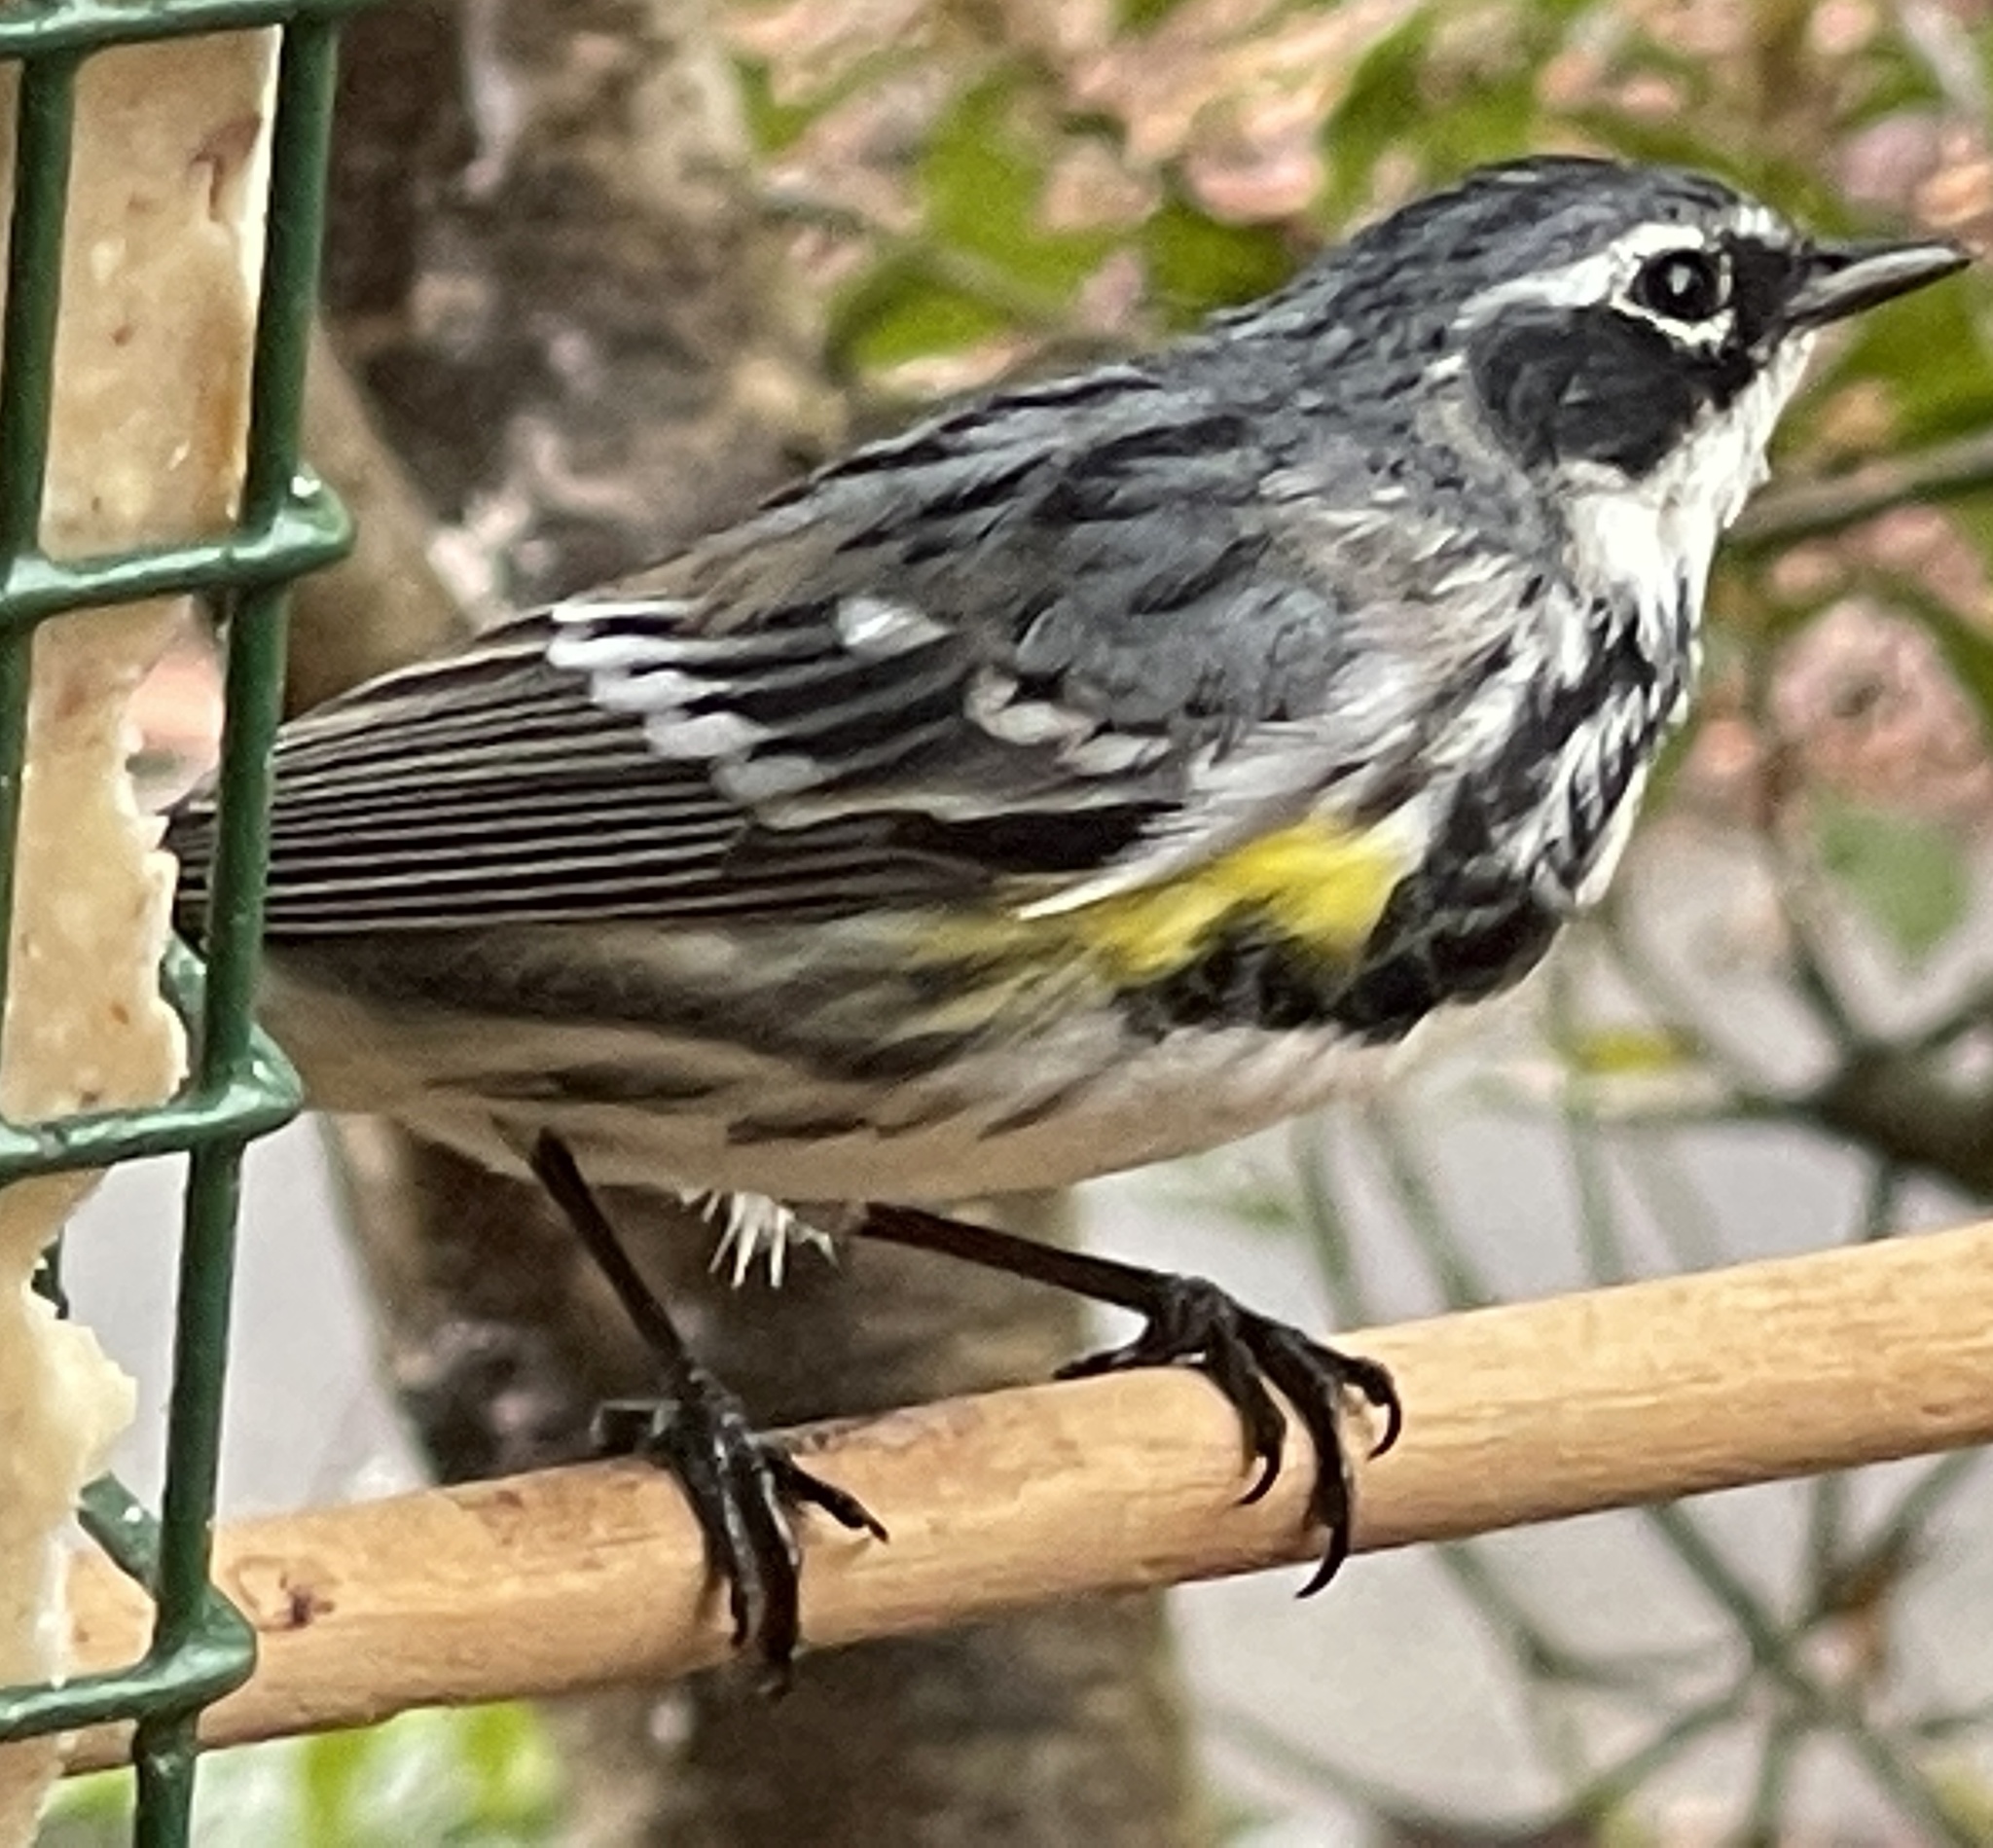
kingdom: Animalia
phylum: Chordata
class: Aves
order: Passeriformes
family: Parulidae
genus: Setophaga
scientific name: Setophaga coronata
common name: Myrtle warbler
